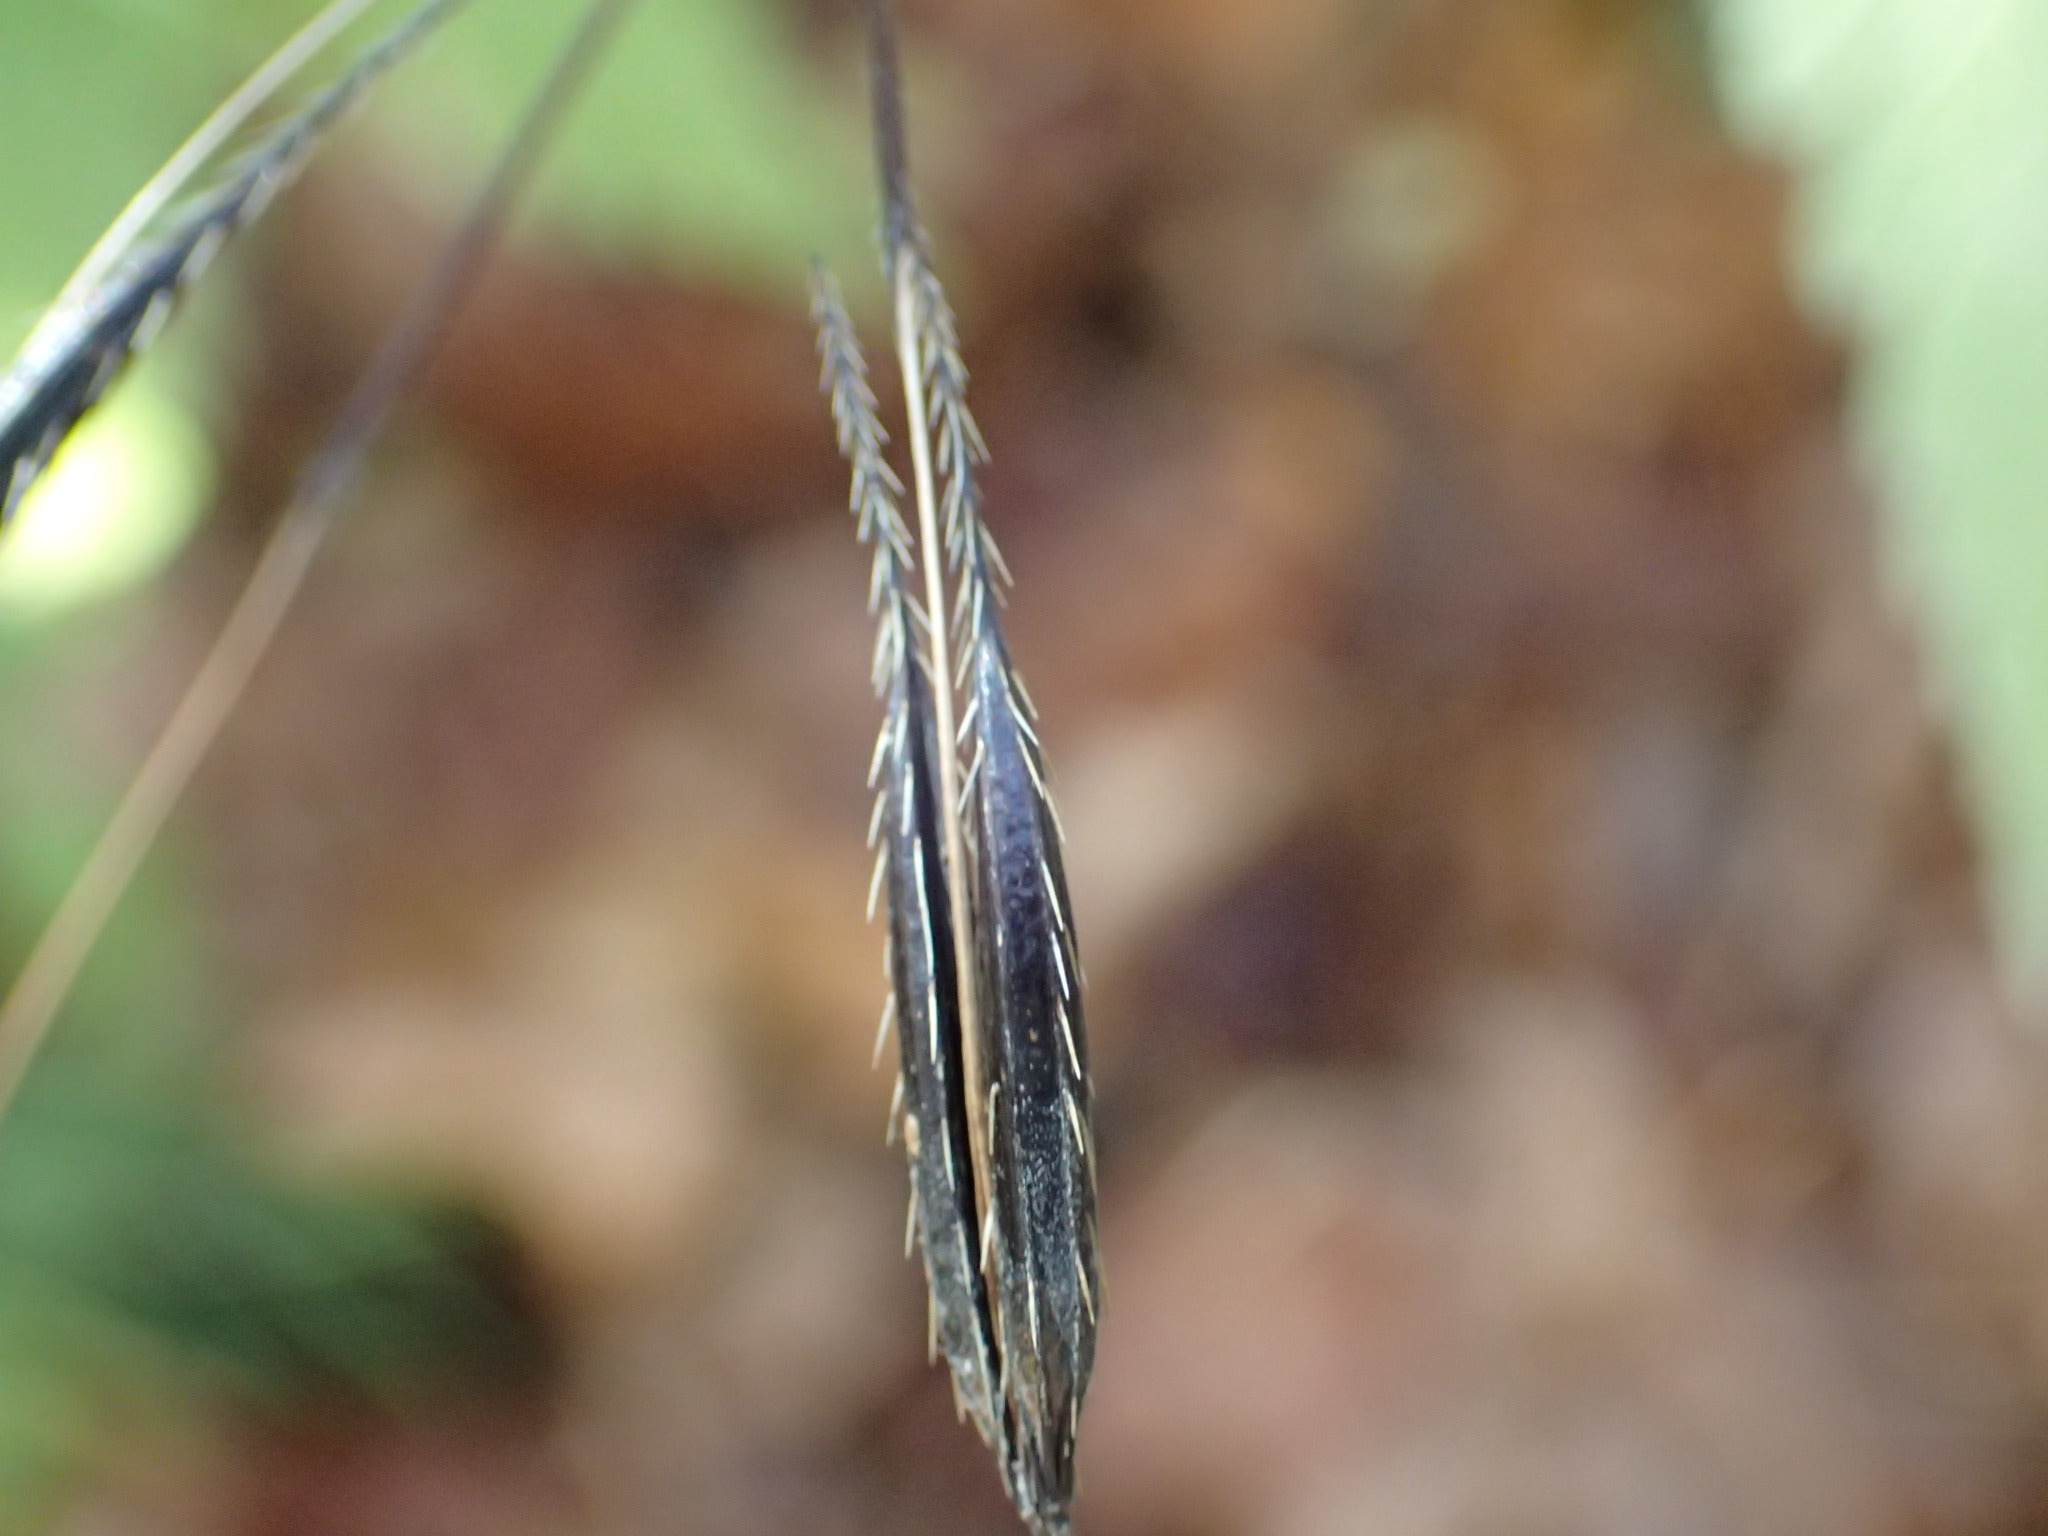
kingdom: Plantae
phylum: Tracheophyta
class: Magnoliopsida
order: Apiales
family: Apiaceae
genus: Osmorhiza
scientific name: Osmorhiza claytonii
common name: Hairy sweet cicely
